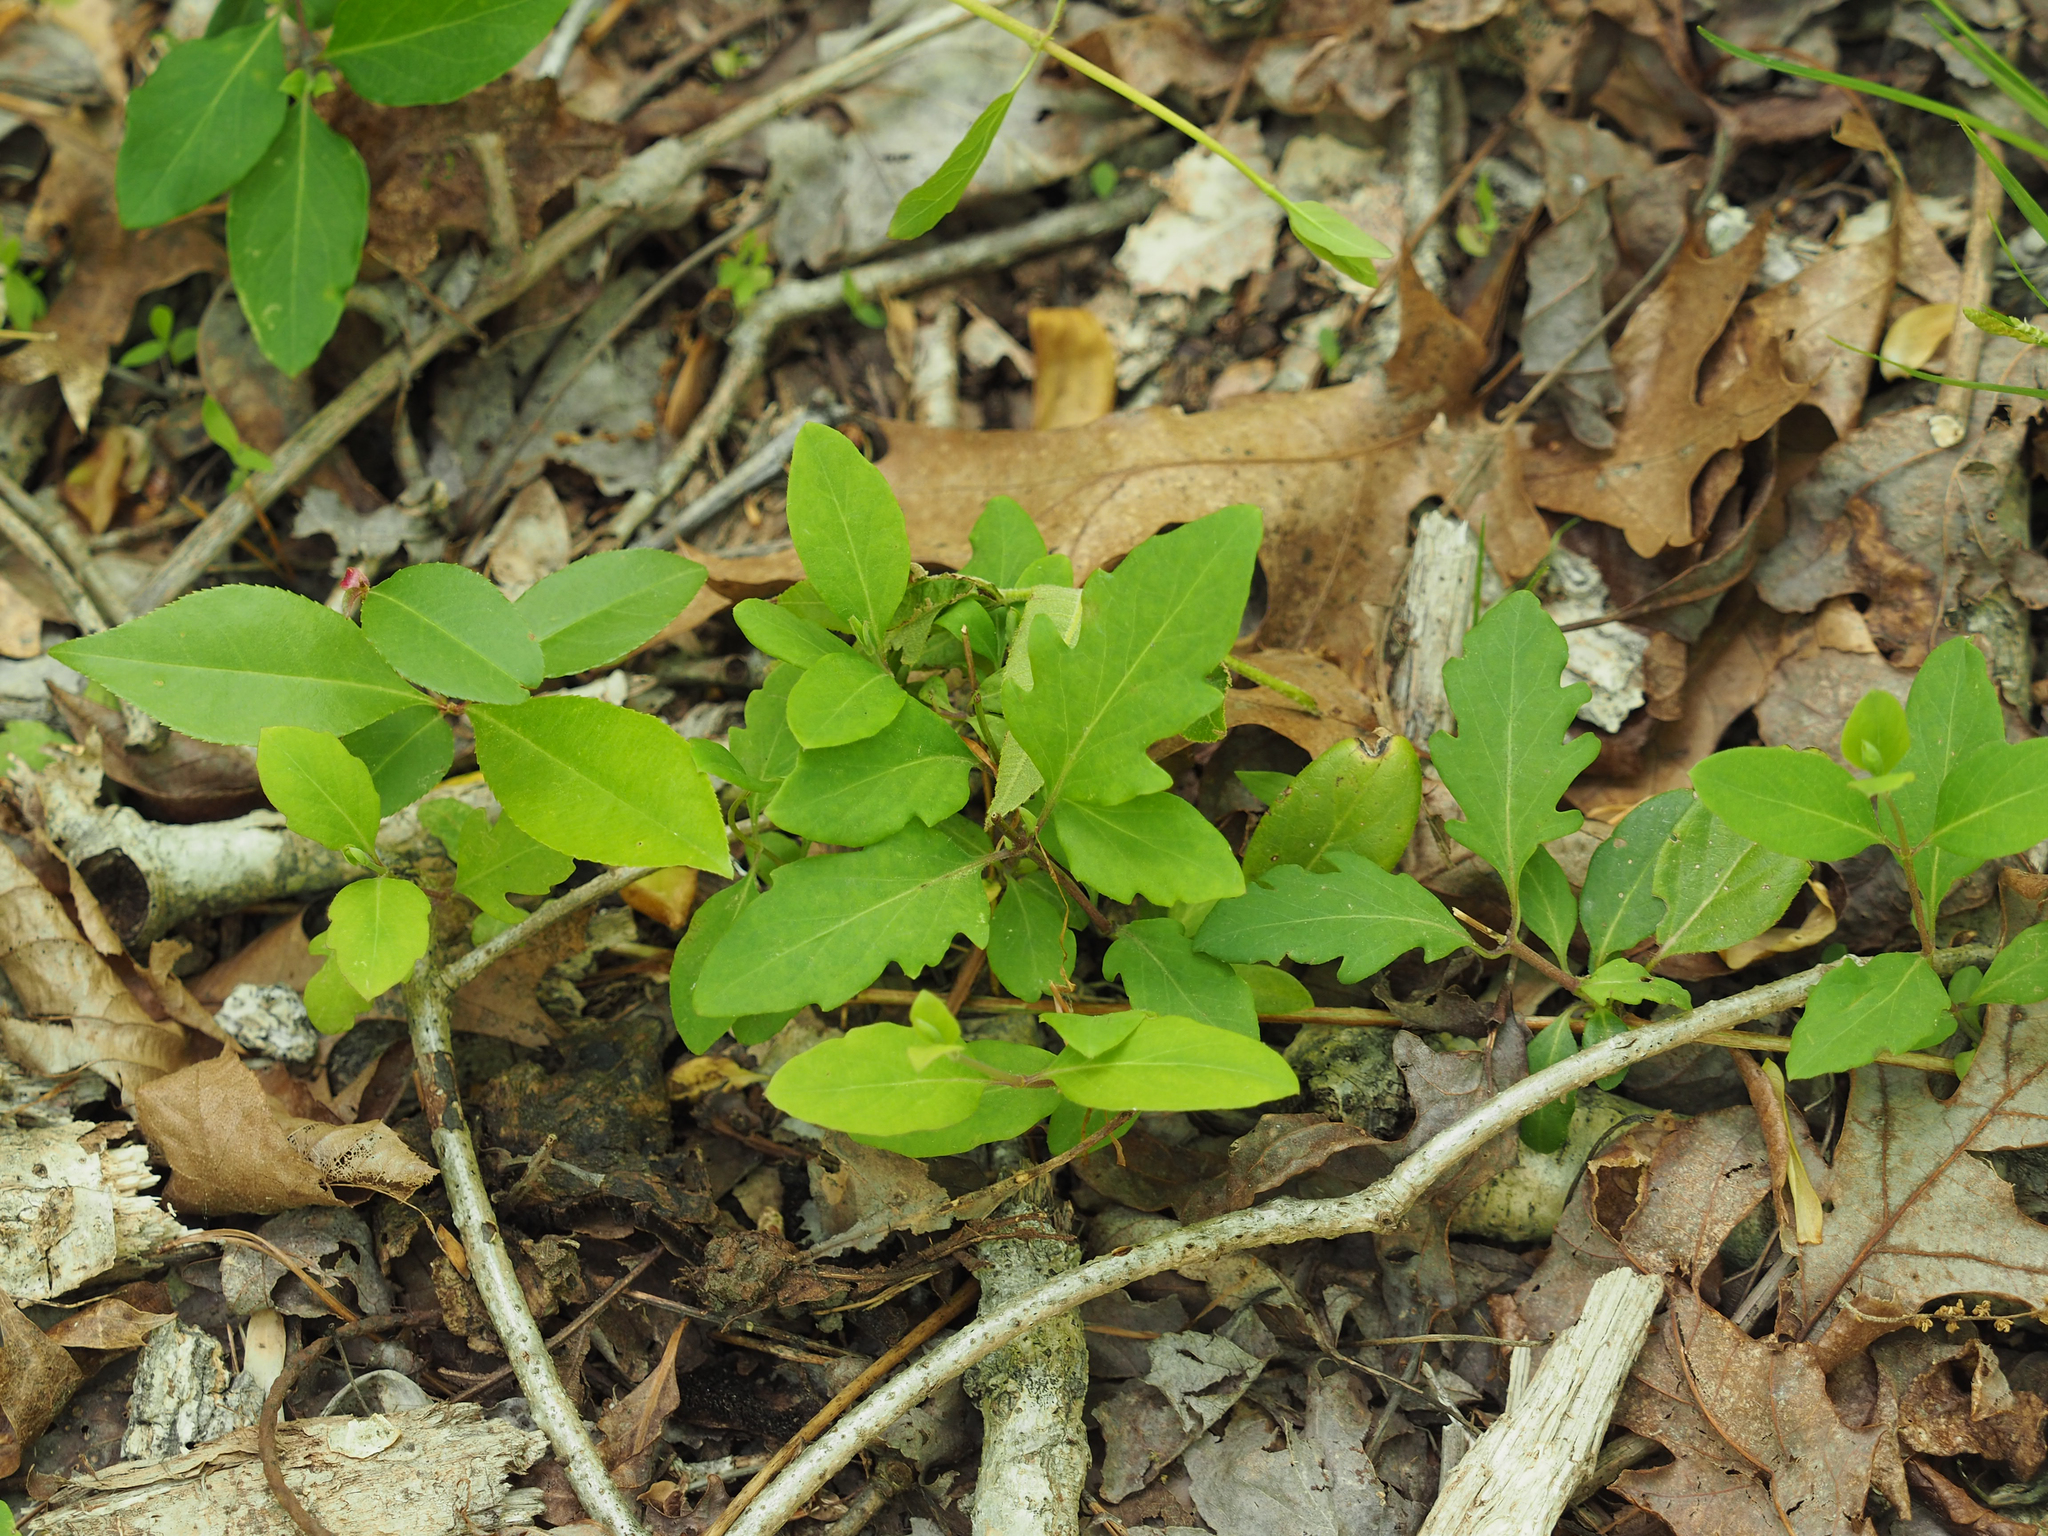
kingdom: Plantae
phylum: Tracheophyta
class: Magnoliopsida
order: Dipsacales
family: Caprifoliaceae
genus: Lonicera
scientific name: Lonicera japonica
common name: Japanese honeysuckle
